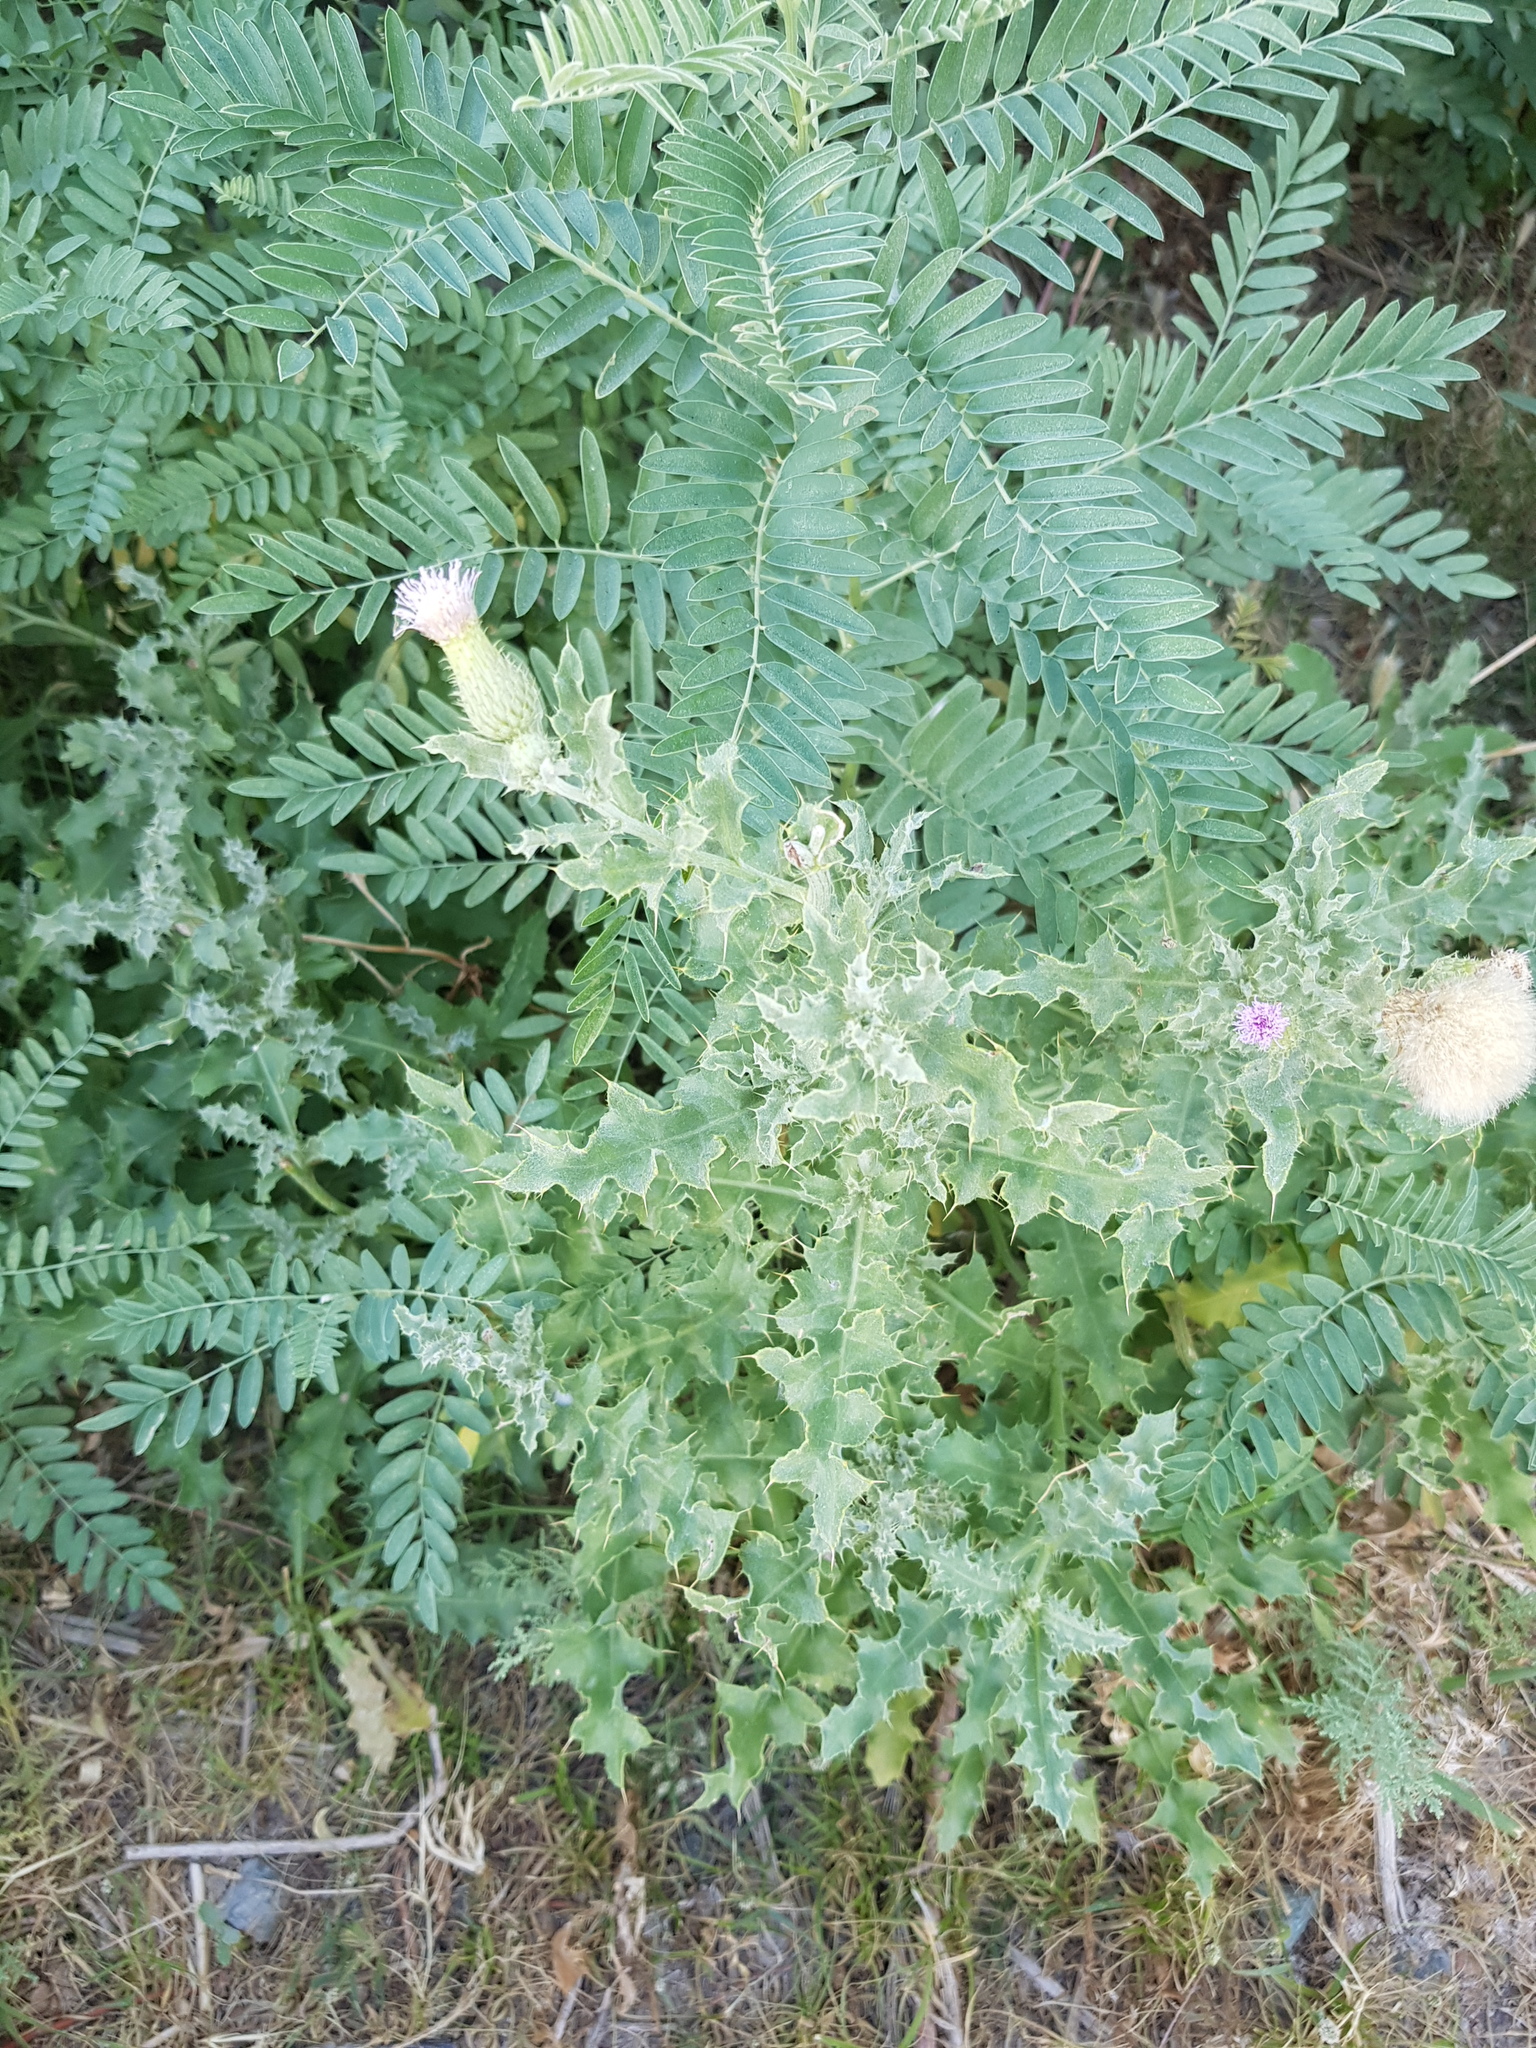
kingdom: Plantae
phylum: Tracheophyta
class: Magnoliopsida
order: Asterales
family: Asteraceae
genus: Cirsium
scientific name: Cirsium arvense
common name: Creeping thistle
